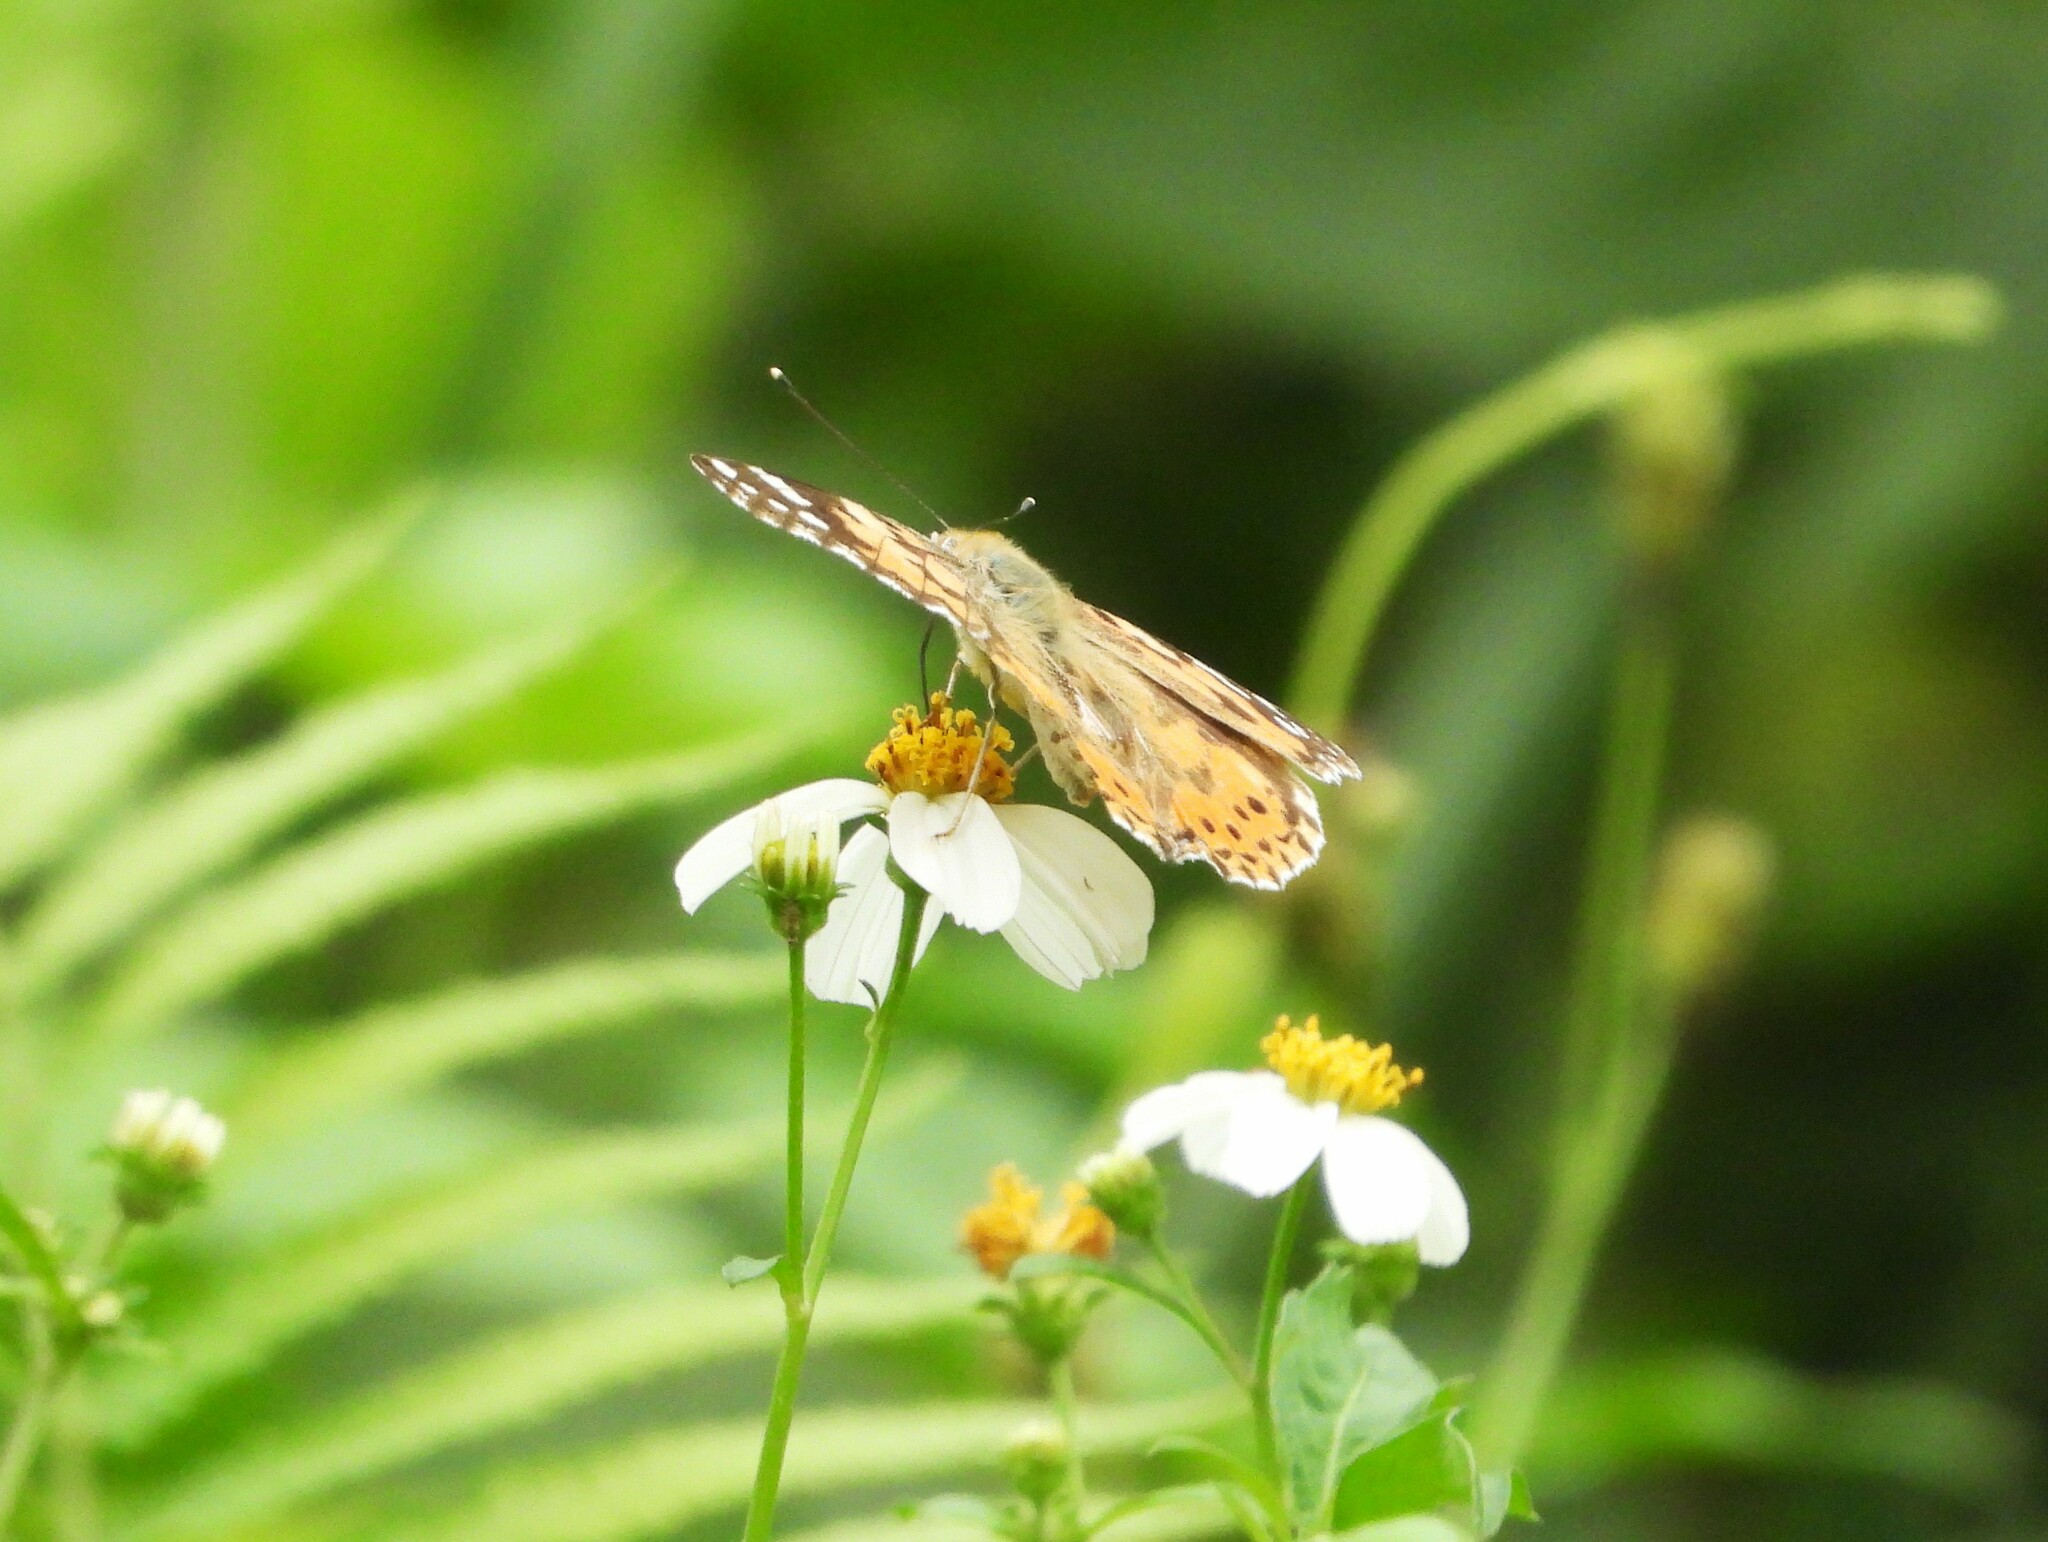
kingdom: Animalia
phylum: Arthropoda
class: Insecta
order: Lepidoptera
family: Nymphalidae
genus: Vanessa
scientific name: Vanessa cardui
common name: Painted lady
